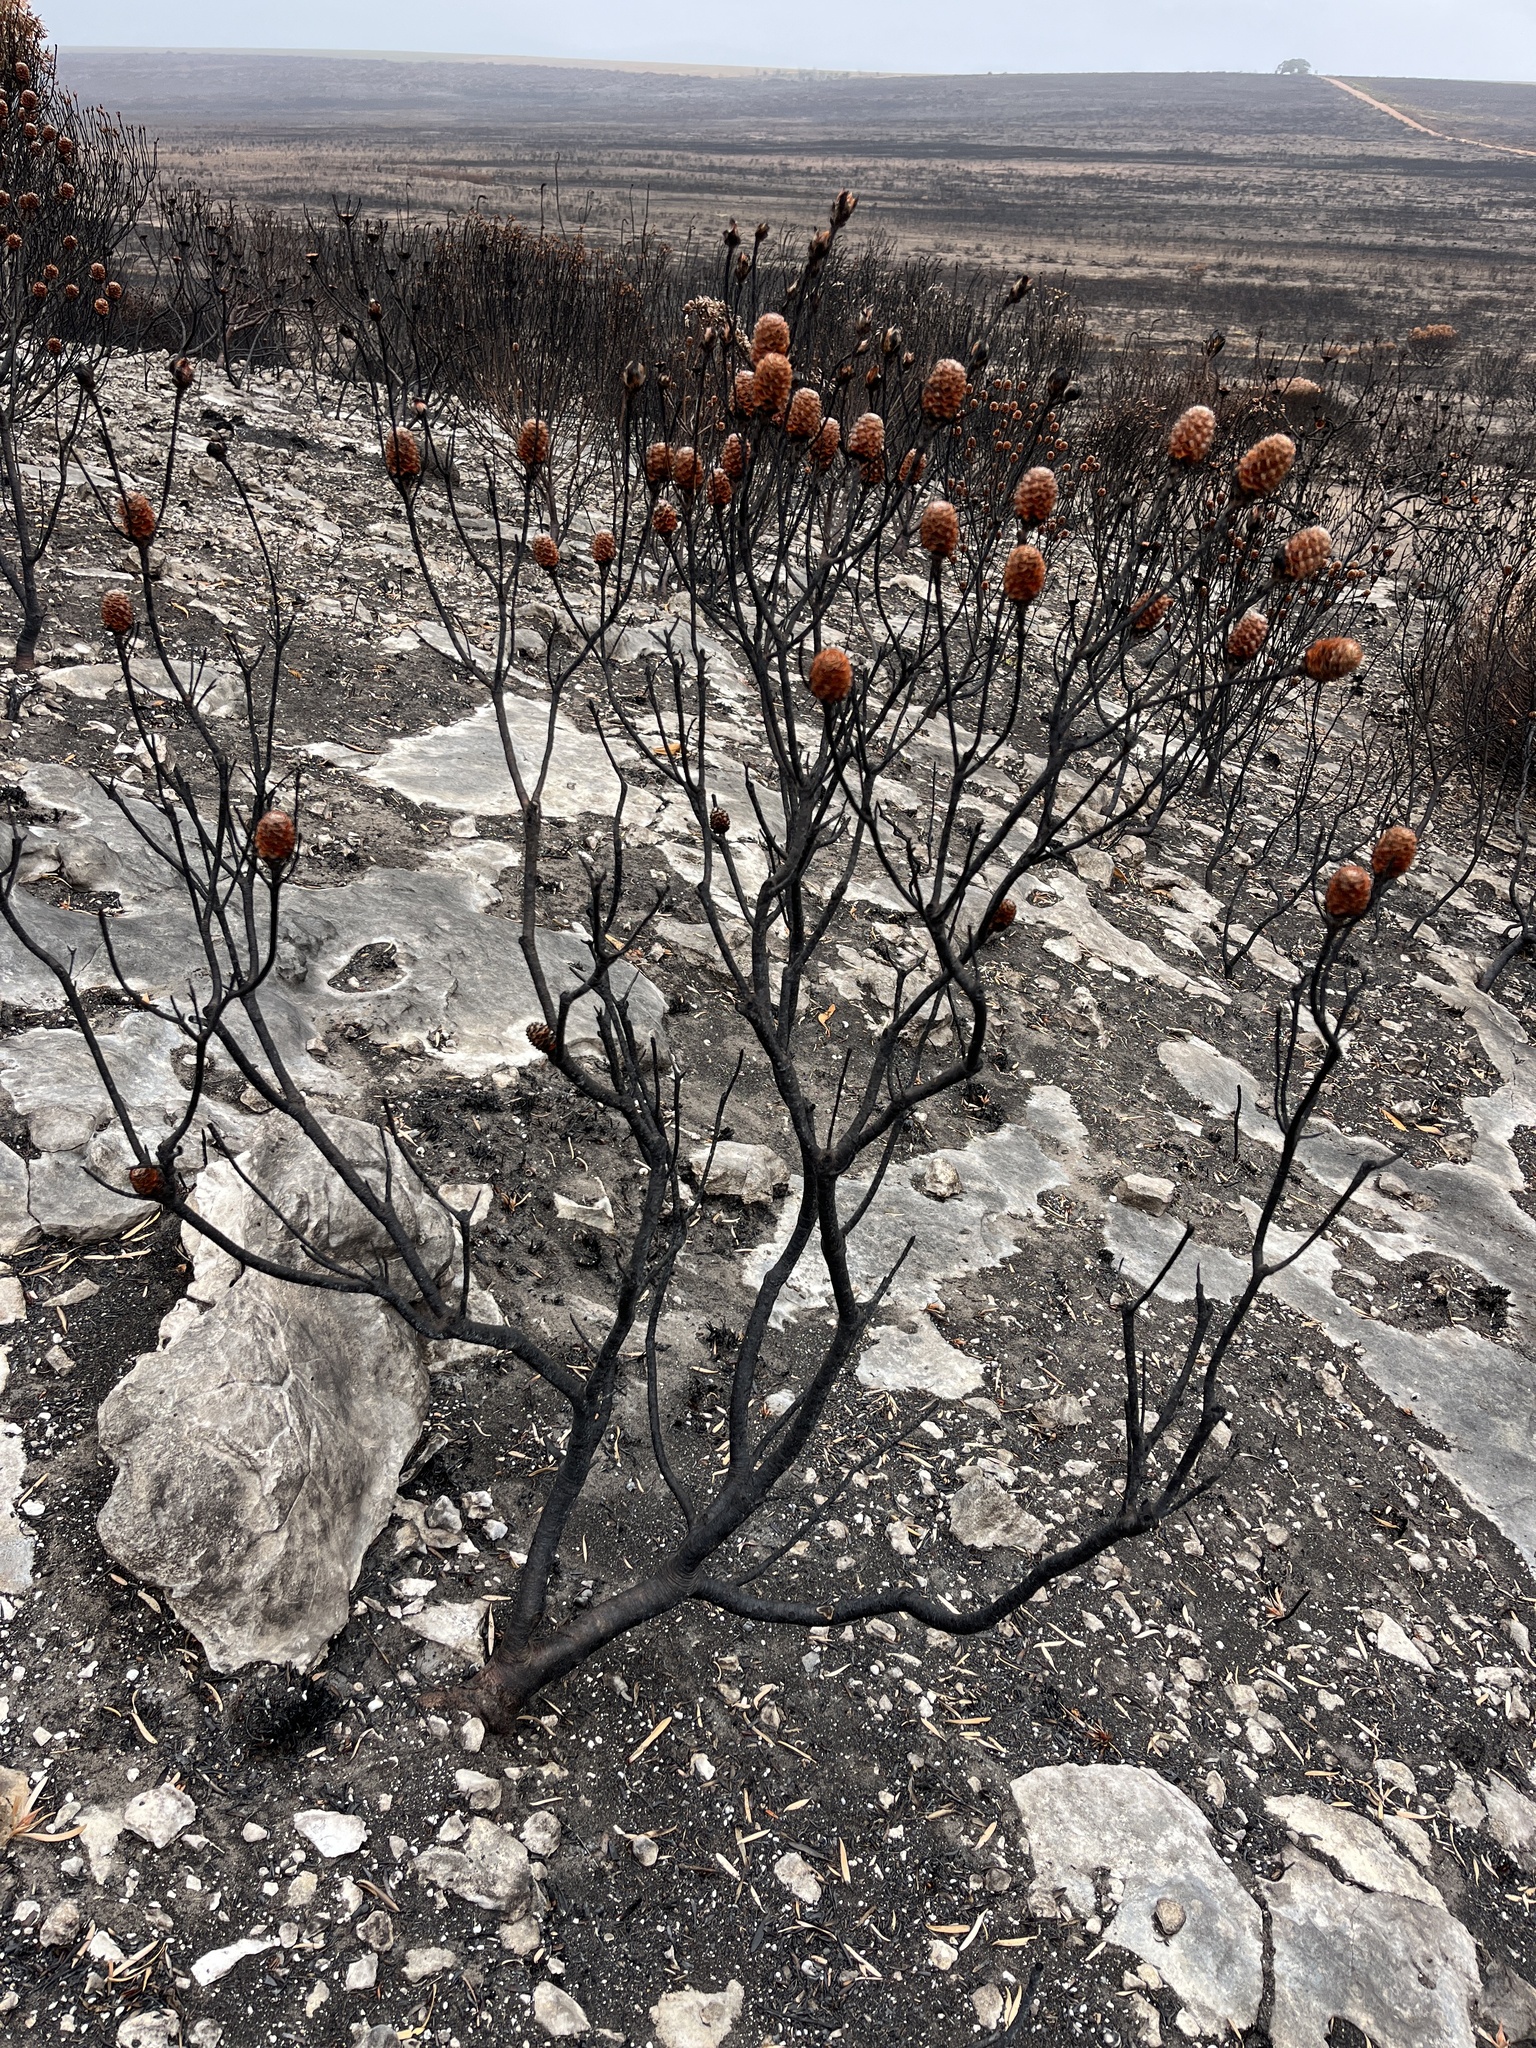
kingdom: Plantae
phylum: Tracheophyta
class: Magnoliopsida
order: Proteales
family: Proteaceae
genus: Leucadendron
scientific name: Leucadendron meridianum
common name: Limestone conebush
